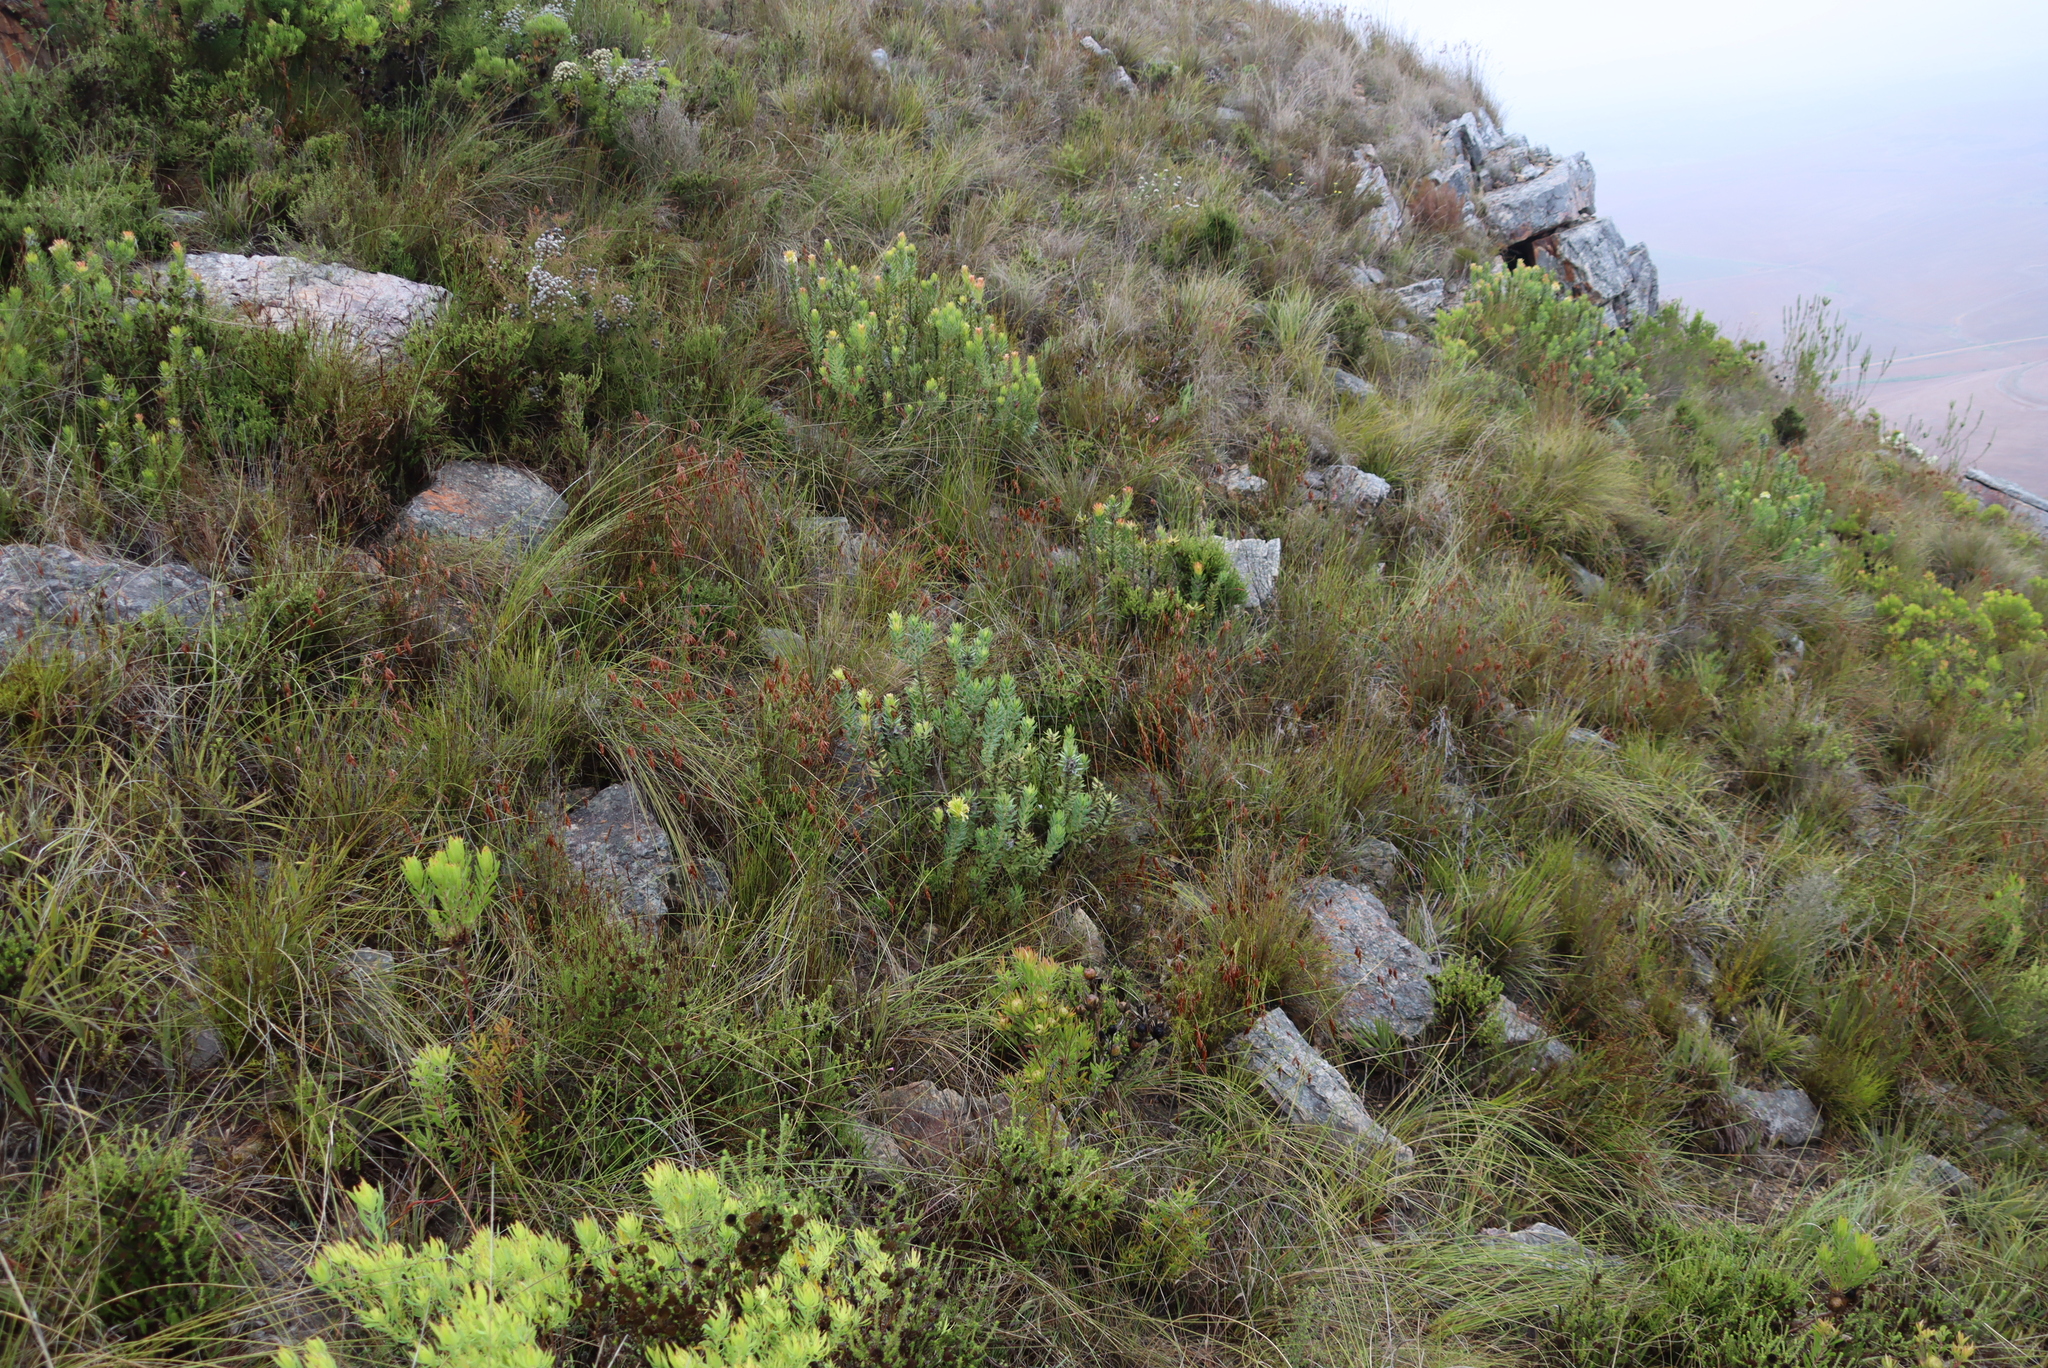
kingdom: Plantae
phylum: Tracheophyta
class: Magnoliopsida
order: Proteales
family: Proteaceae
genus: Mimetes
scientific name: Mimetes cucullatus
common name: Common pagoda
